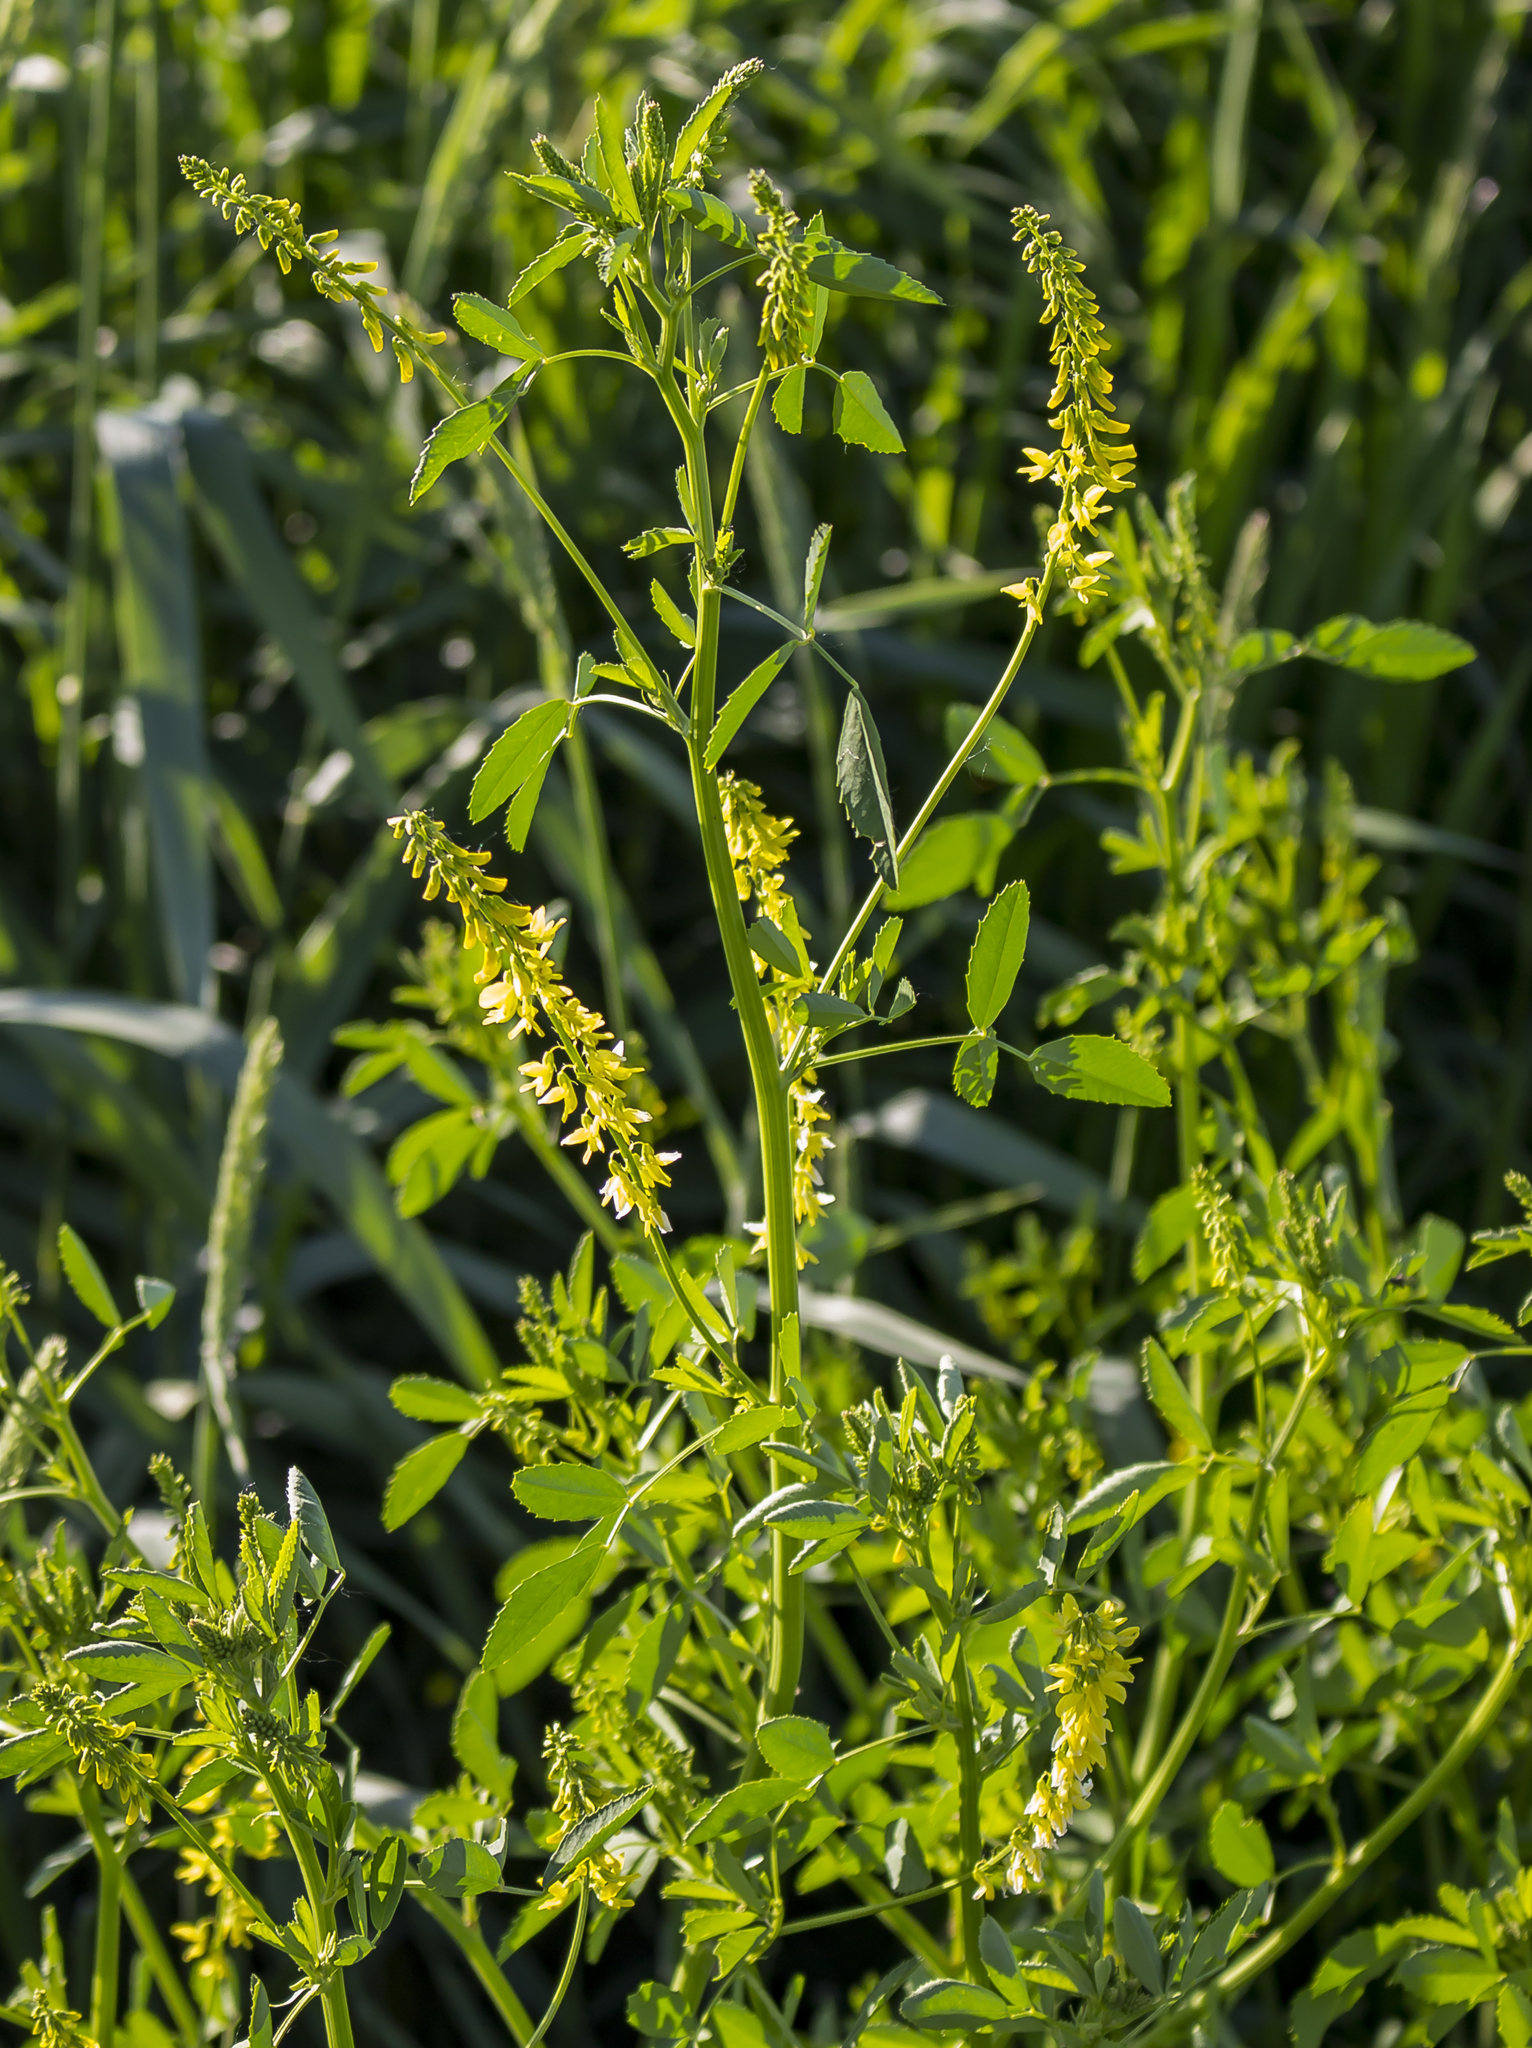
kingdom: Plantae
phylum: Tracheophyta
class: Magnoliopsida
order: Fabales
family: Fabaceae
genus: Melilotus
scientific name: Melilotus officinalis
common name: Sweetclover
